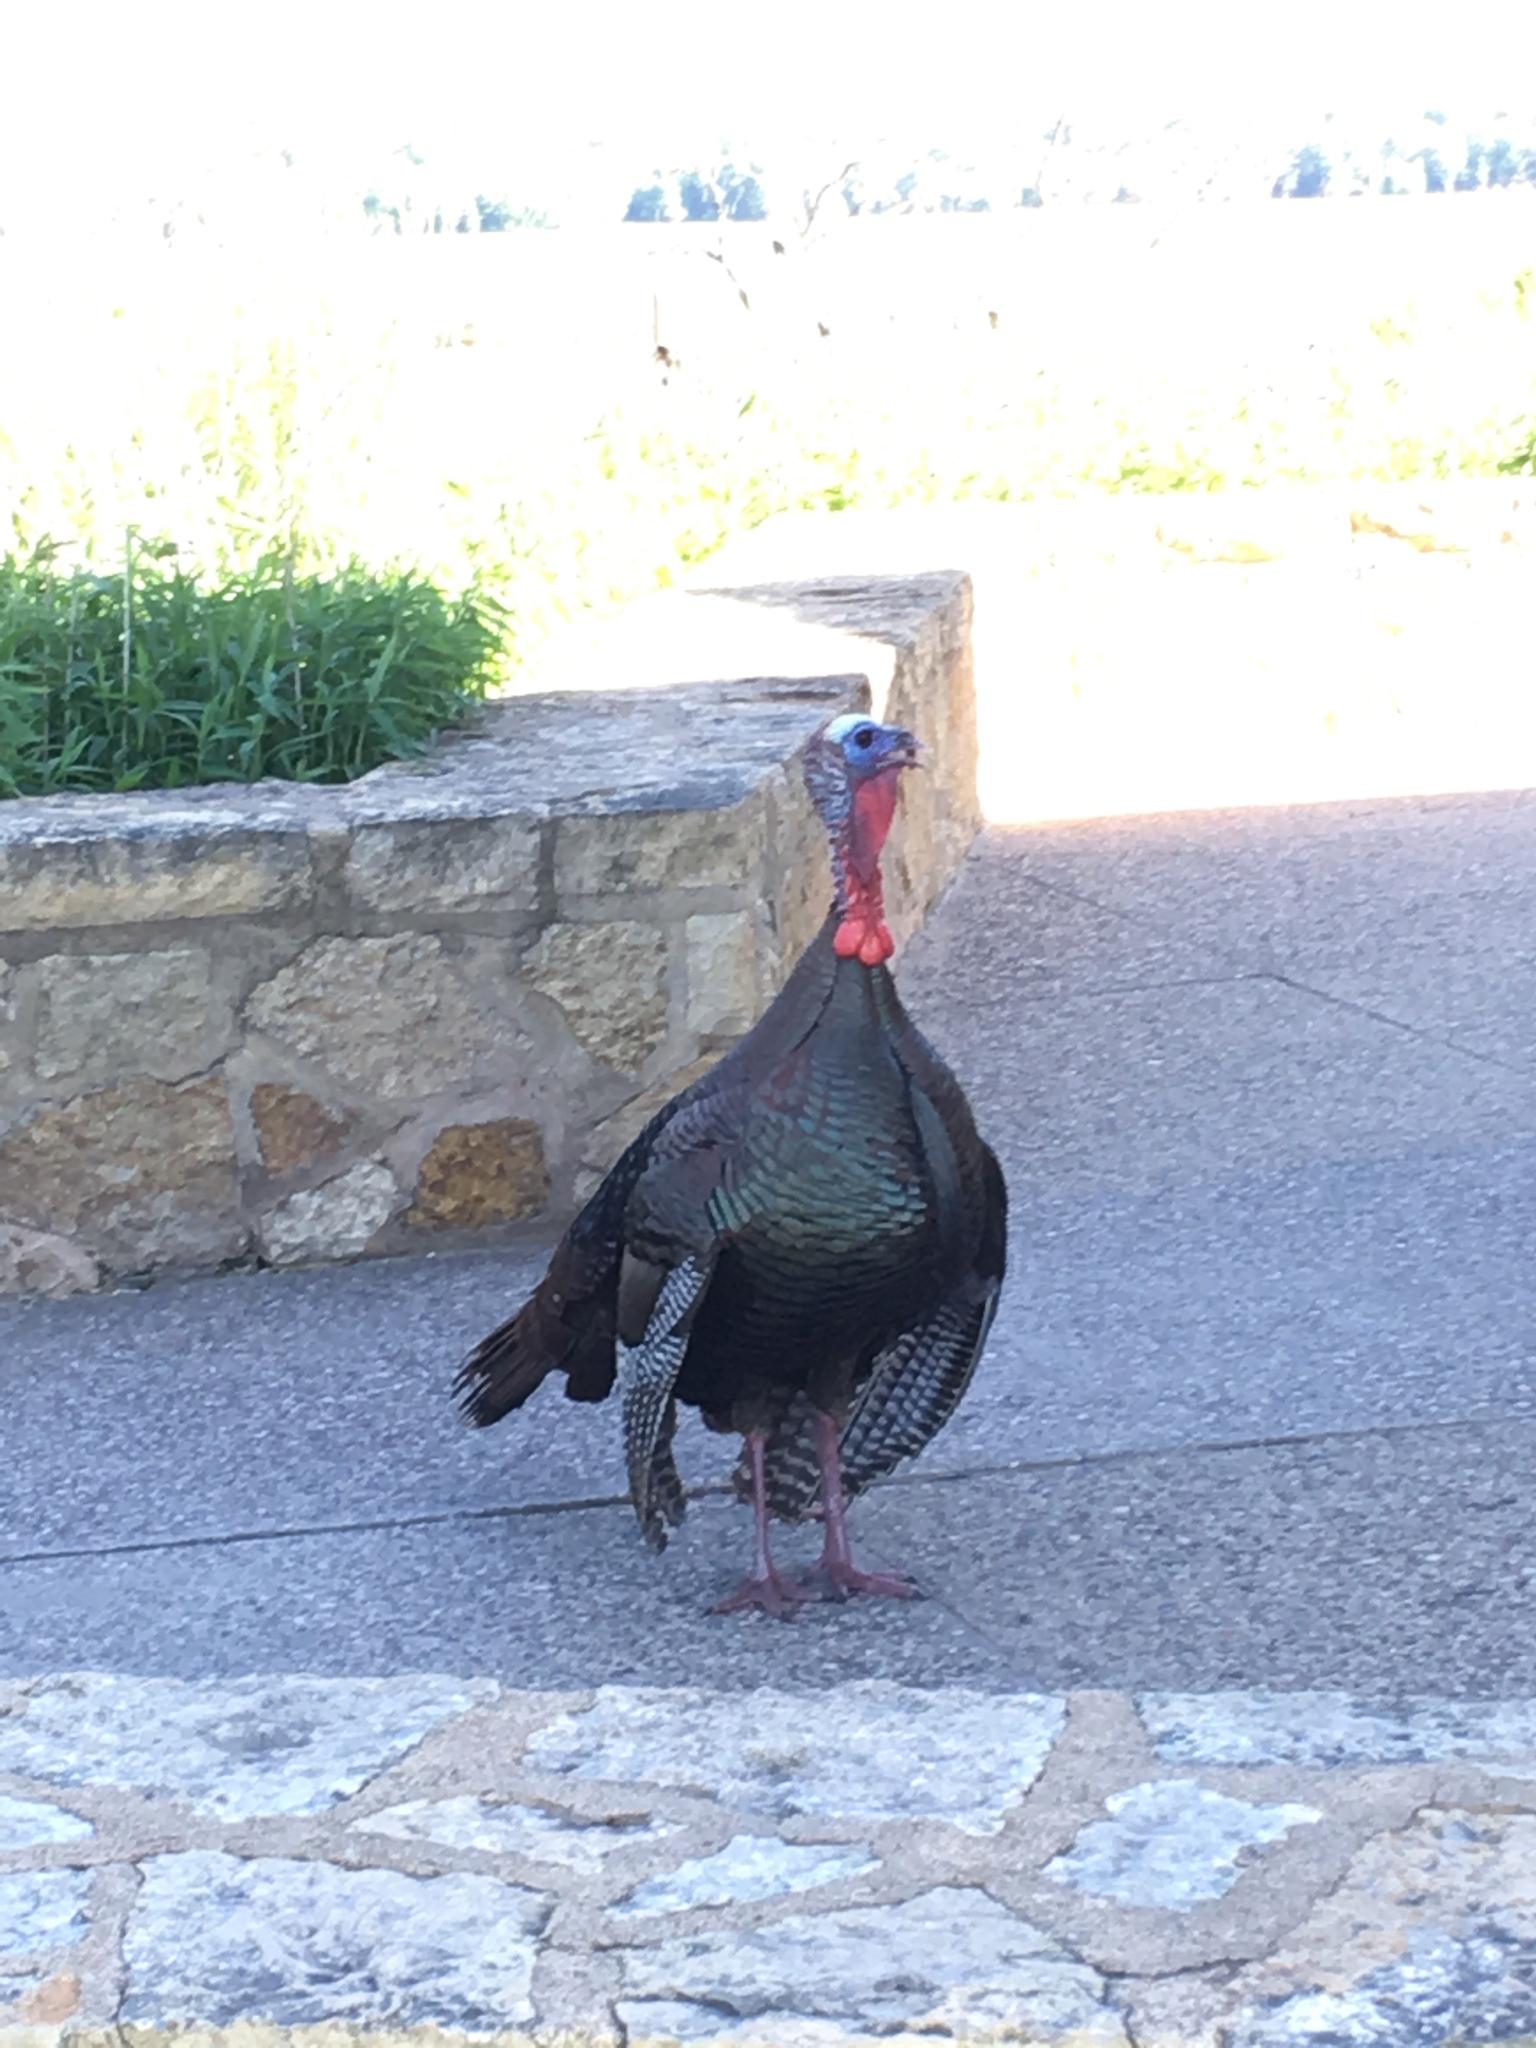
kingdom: Animalia
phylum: Chordata
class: Aves
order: Galliformes
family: Phasianidae
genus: Meleagris
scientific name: Meleagris gallopavo
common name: Wild turkey
